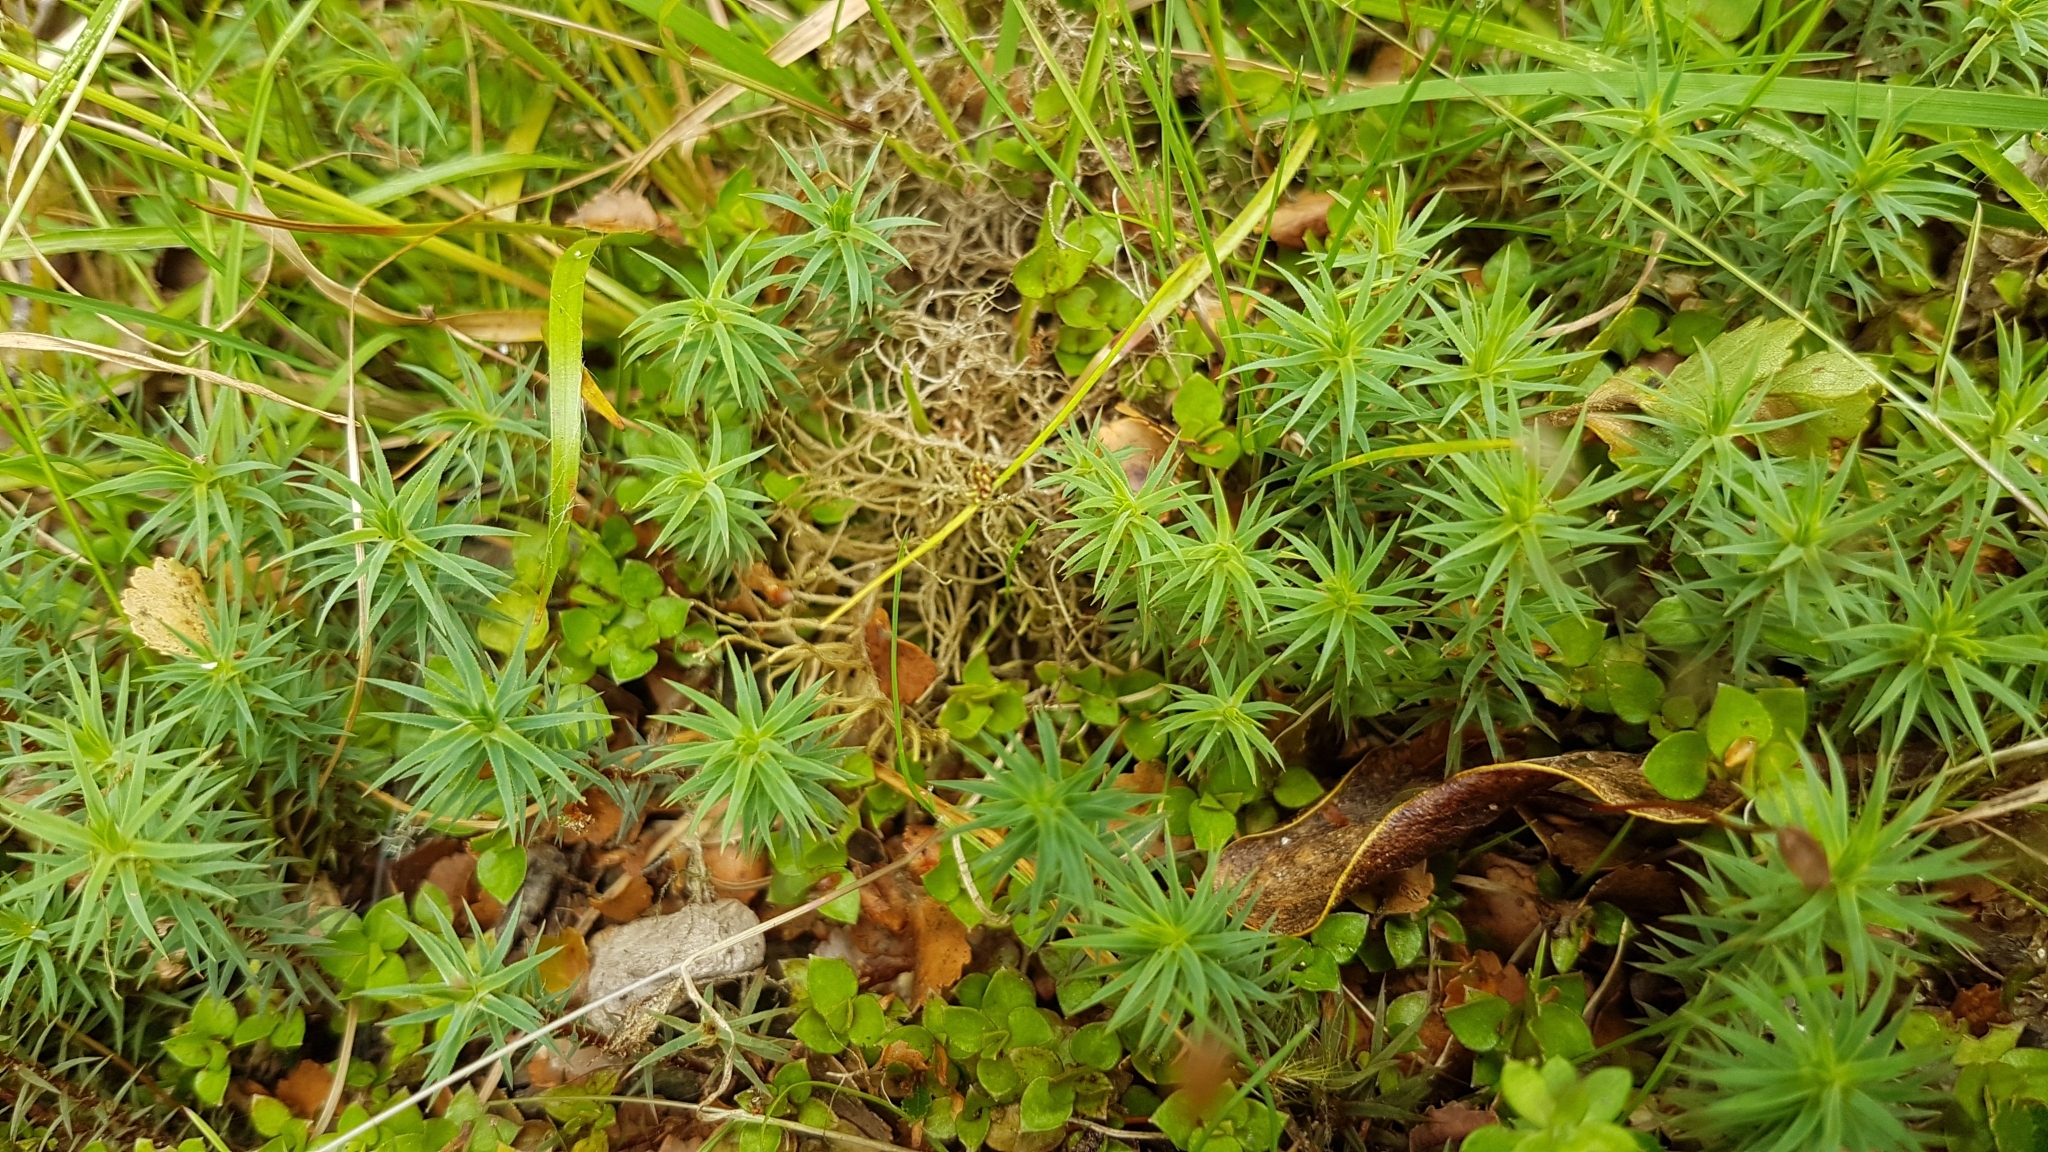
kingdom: Plantae
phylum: Bryophyta
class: Polytrichopsida
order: Polytrichales
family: Polytrichaceae
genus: Dawsonia
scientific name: Dawsonia superba
